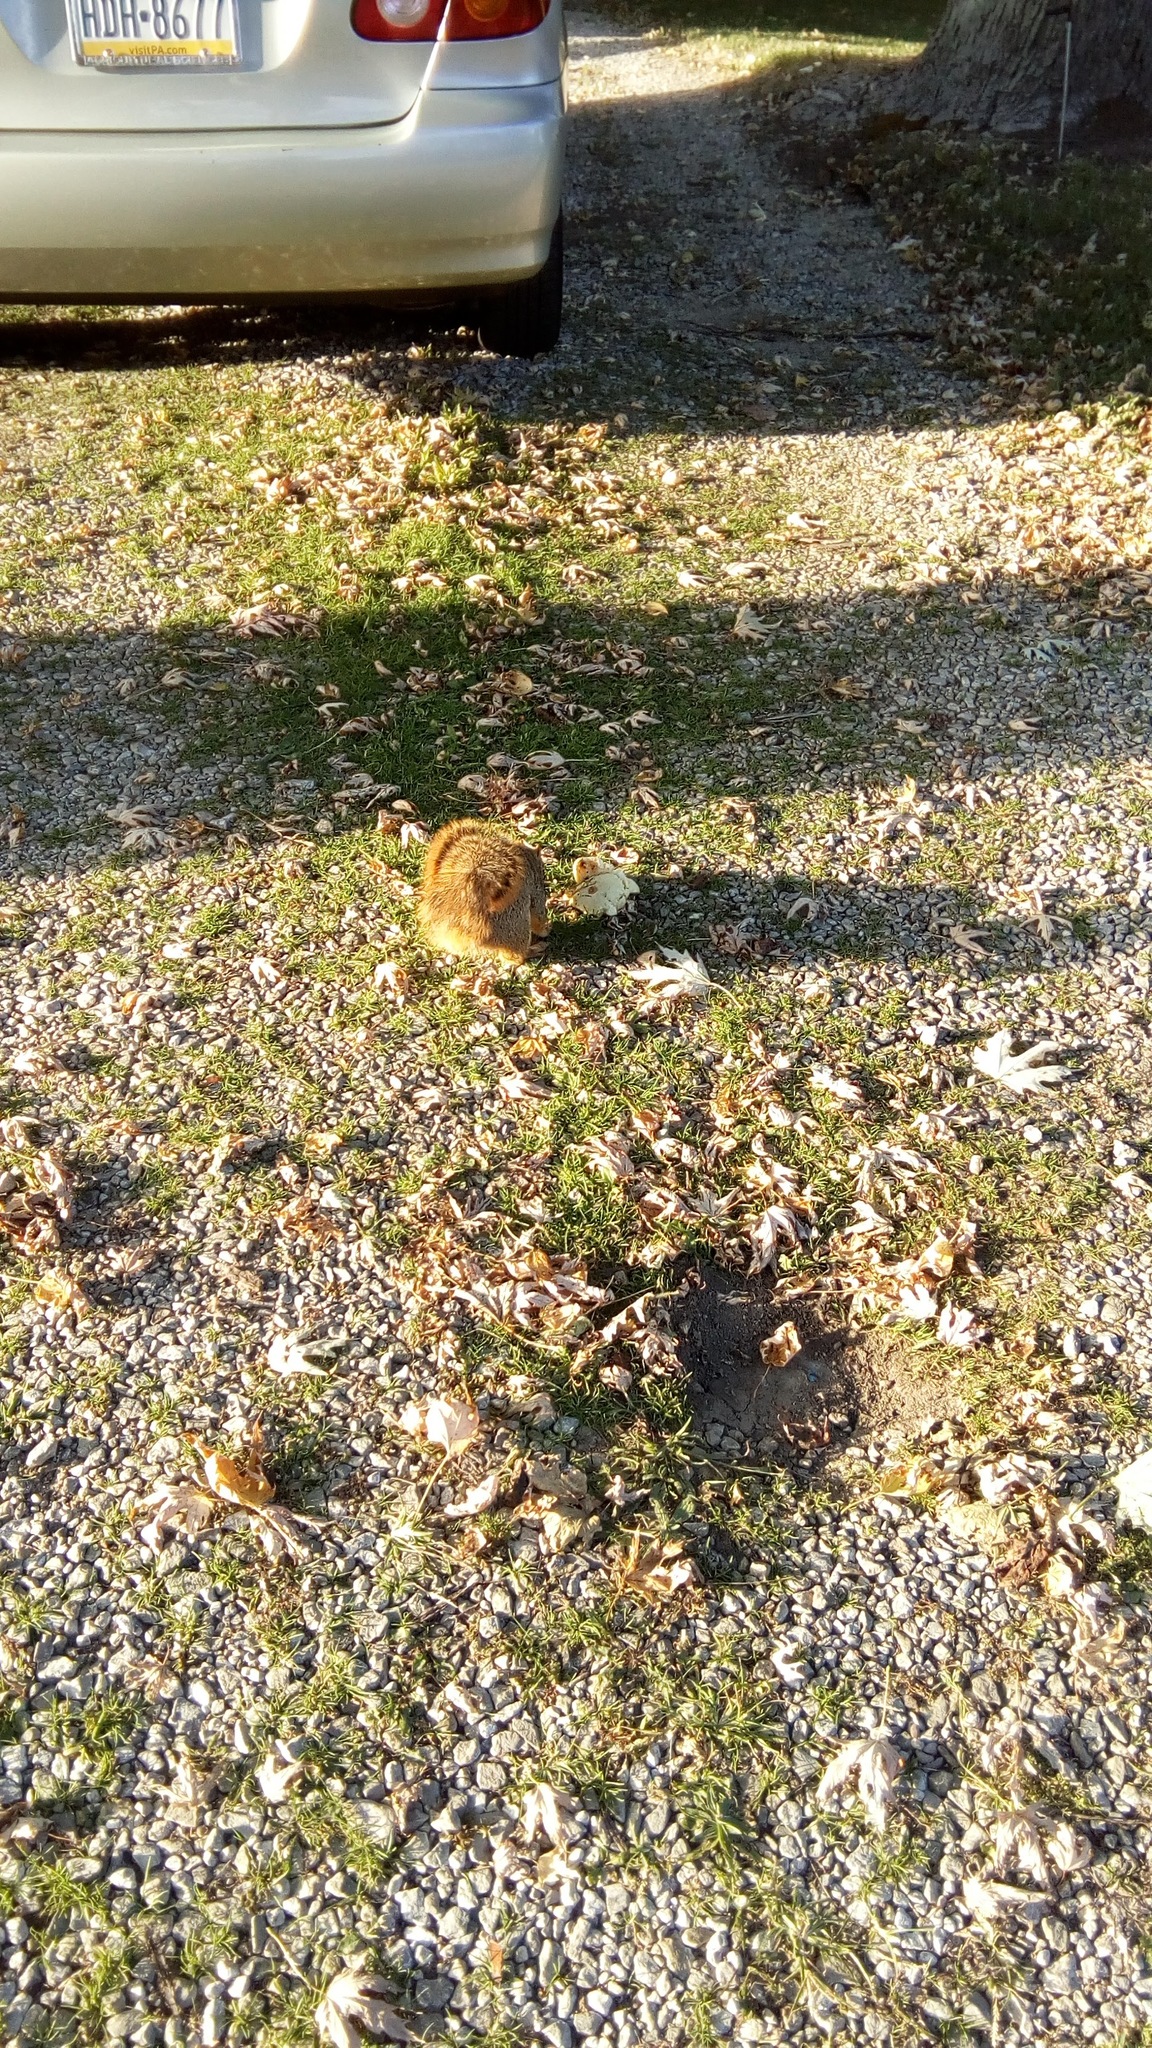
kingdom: Animalia
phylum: Chordata
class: Mammalia
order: Rodentia
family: Sciuridae
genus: Sciurus
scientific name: Sciurus niger
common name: Fox squirrel
